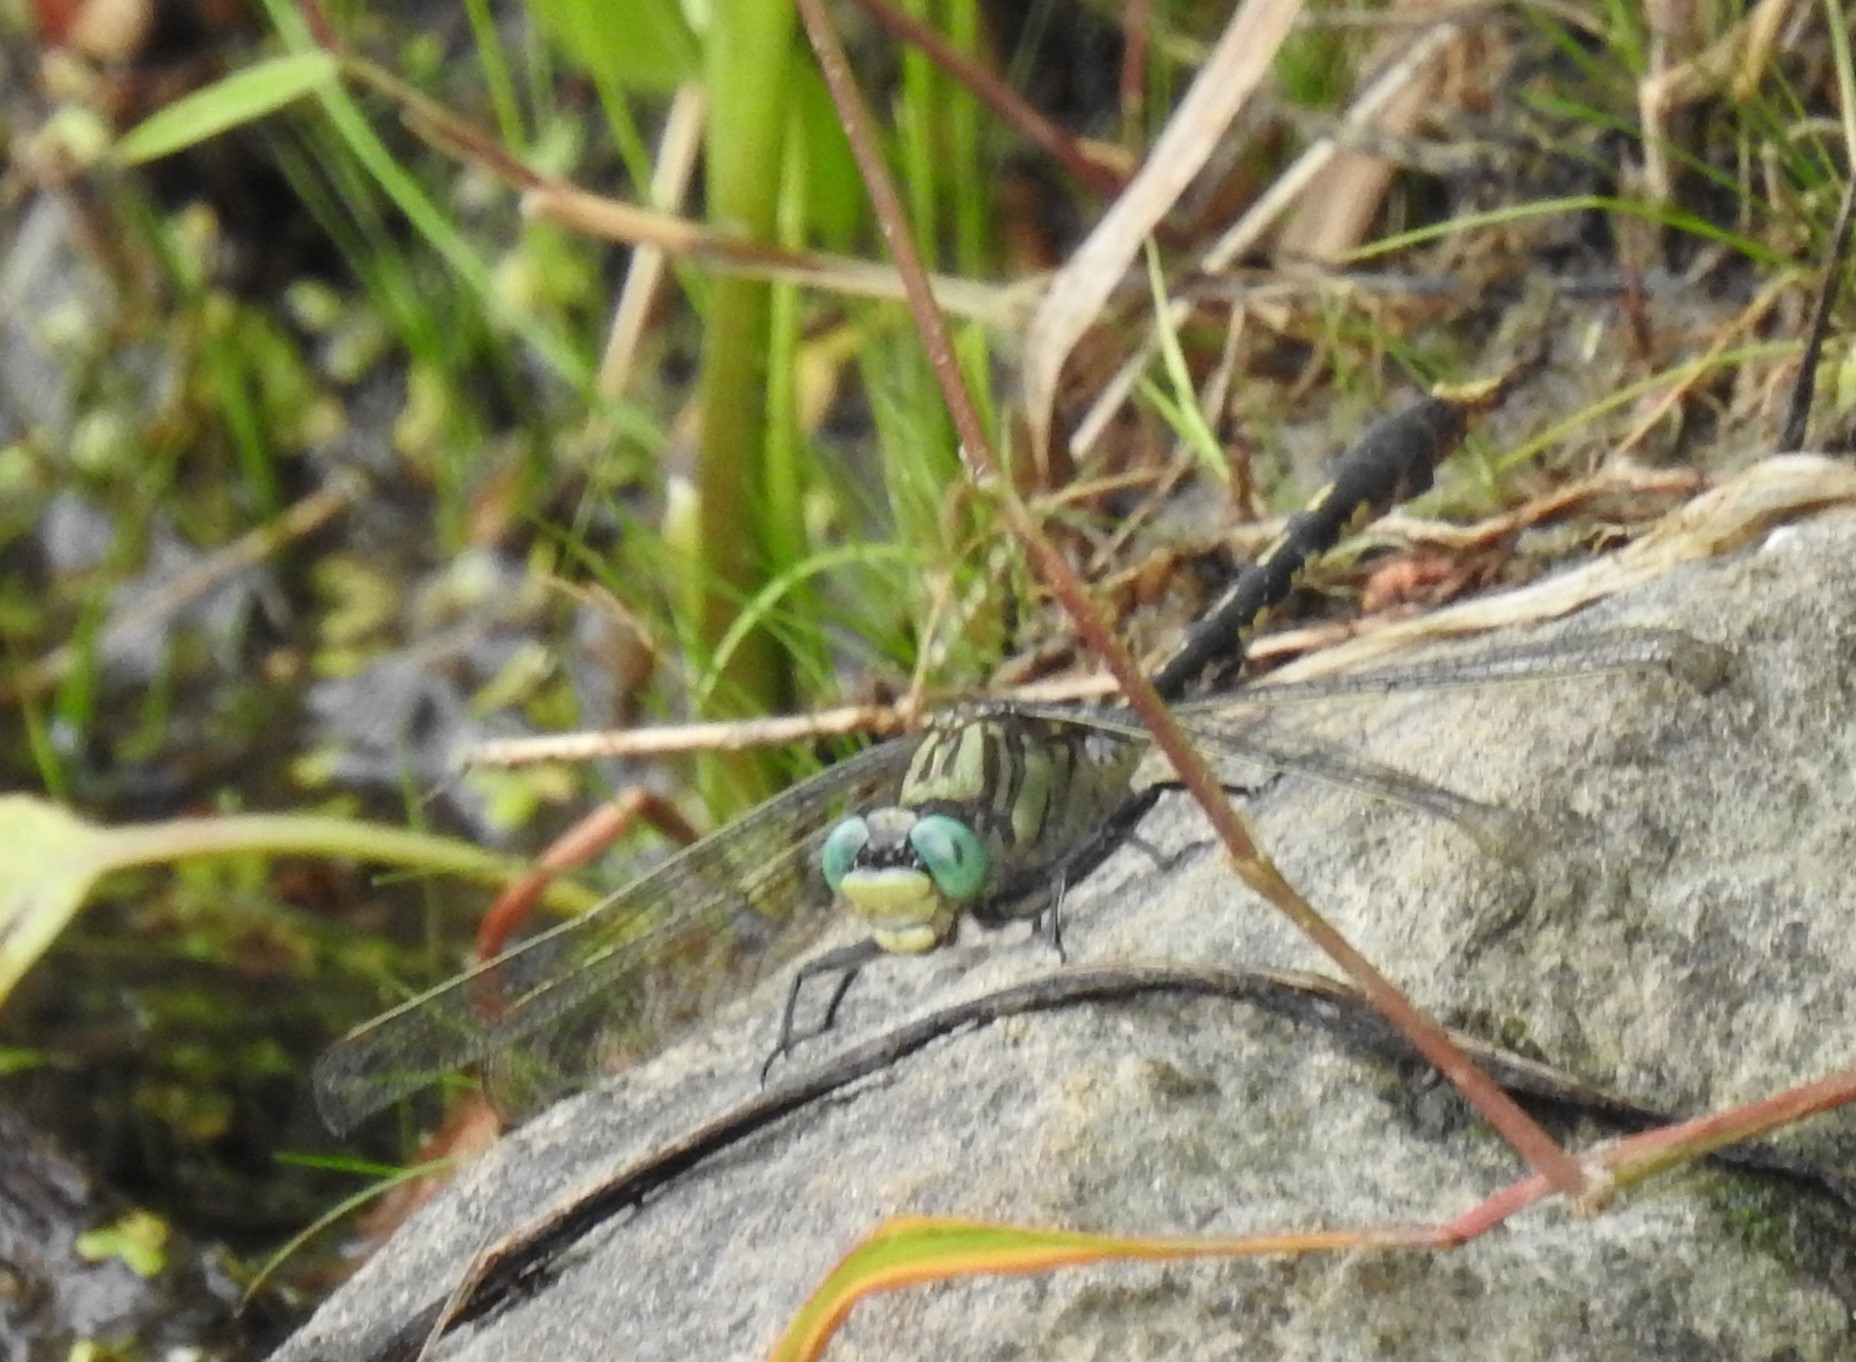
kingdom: Animalia
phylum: Arthropoda
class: Insecta
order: Odonata
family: Gomphidae
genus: Arigomphus
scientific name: Arigomphus villosipes
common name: Unicorn clubtail
